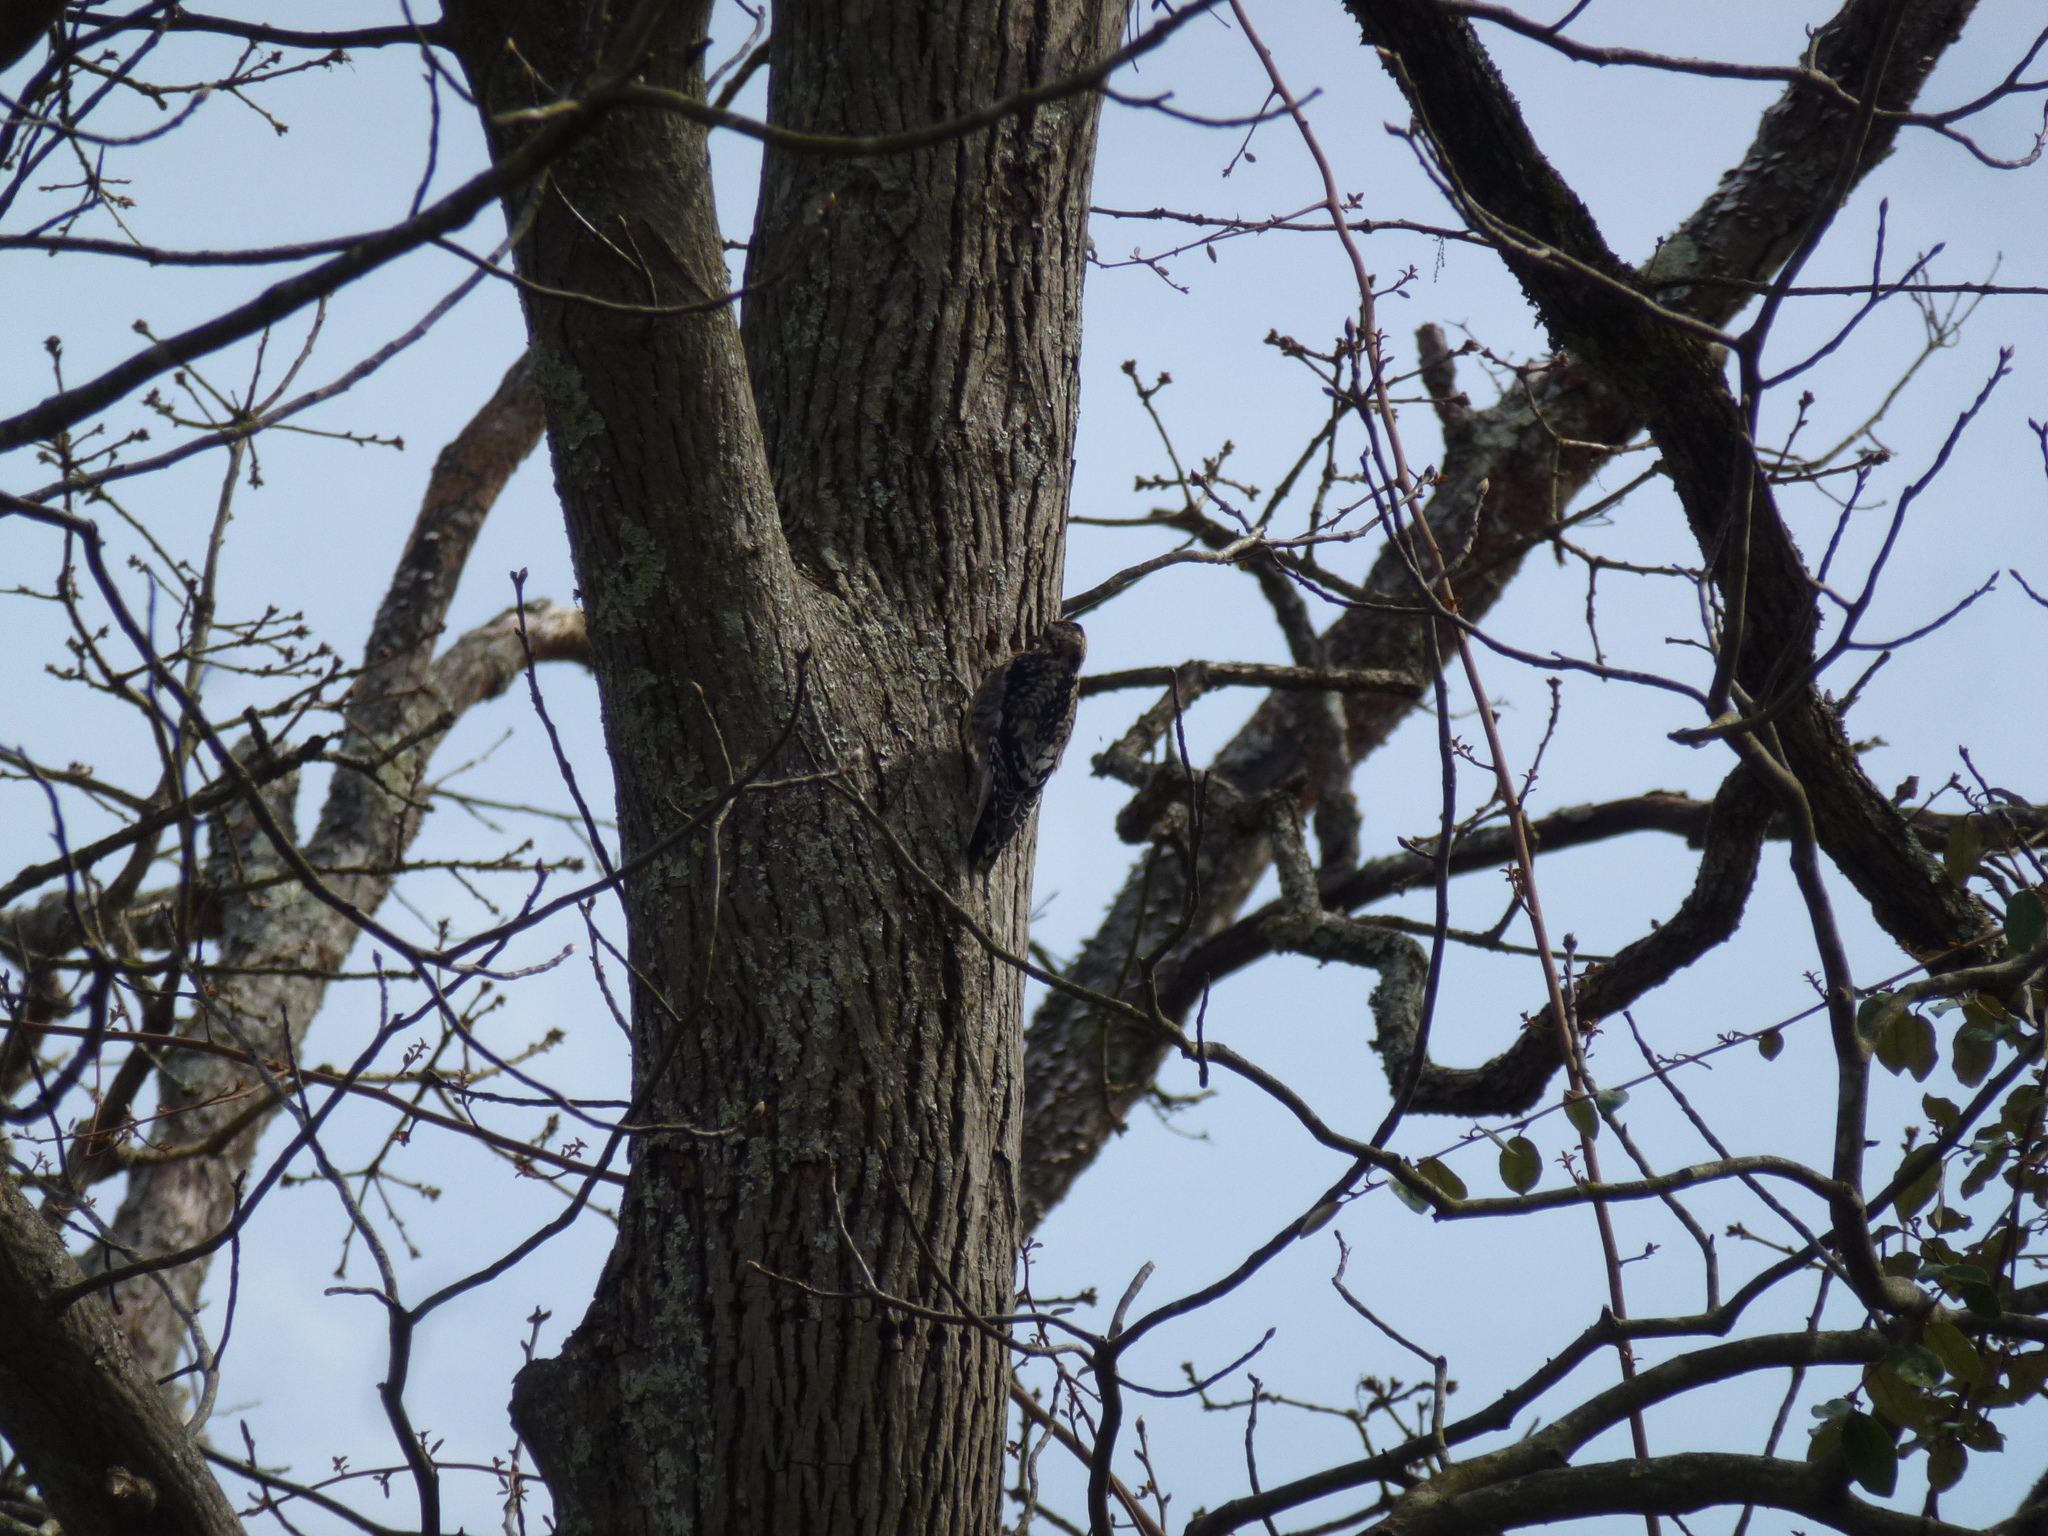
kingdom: Animalia
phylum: Chordata
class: Aves
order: Piciformes
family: Picidae
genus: Sphyrapicus
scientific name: Sphyrapicus varius
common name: Yellow-bellied sapsucker
